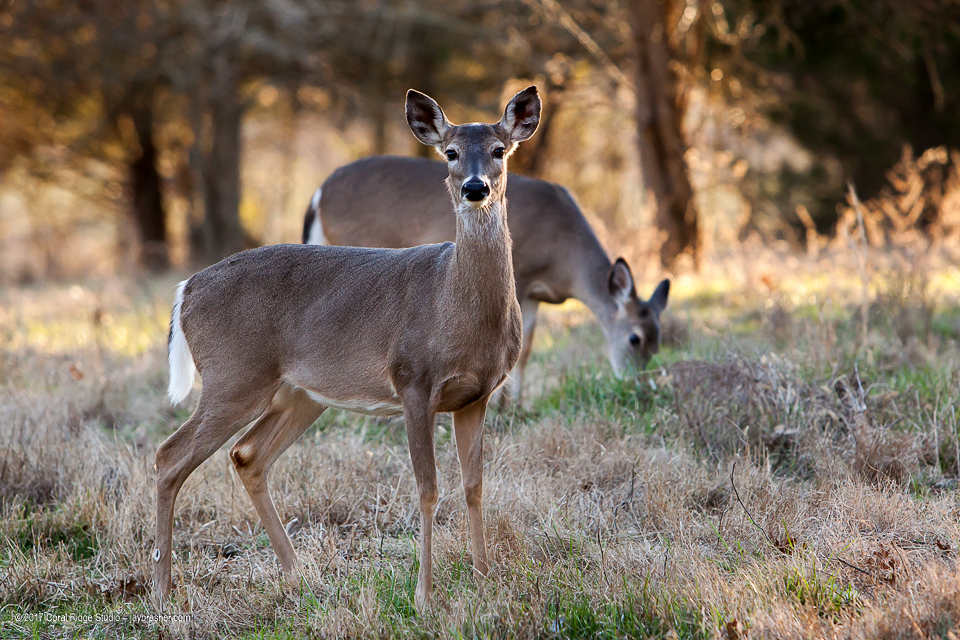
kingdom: Animalia
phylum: Chordata
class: Mammalia
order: Artiodactyla
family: Cervidae
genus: Odocoileus
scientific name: Odocoileus virginianus
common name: White-tailed deer
